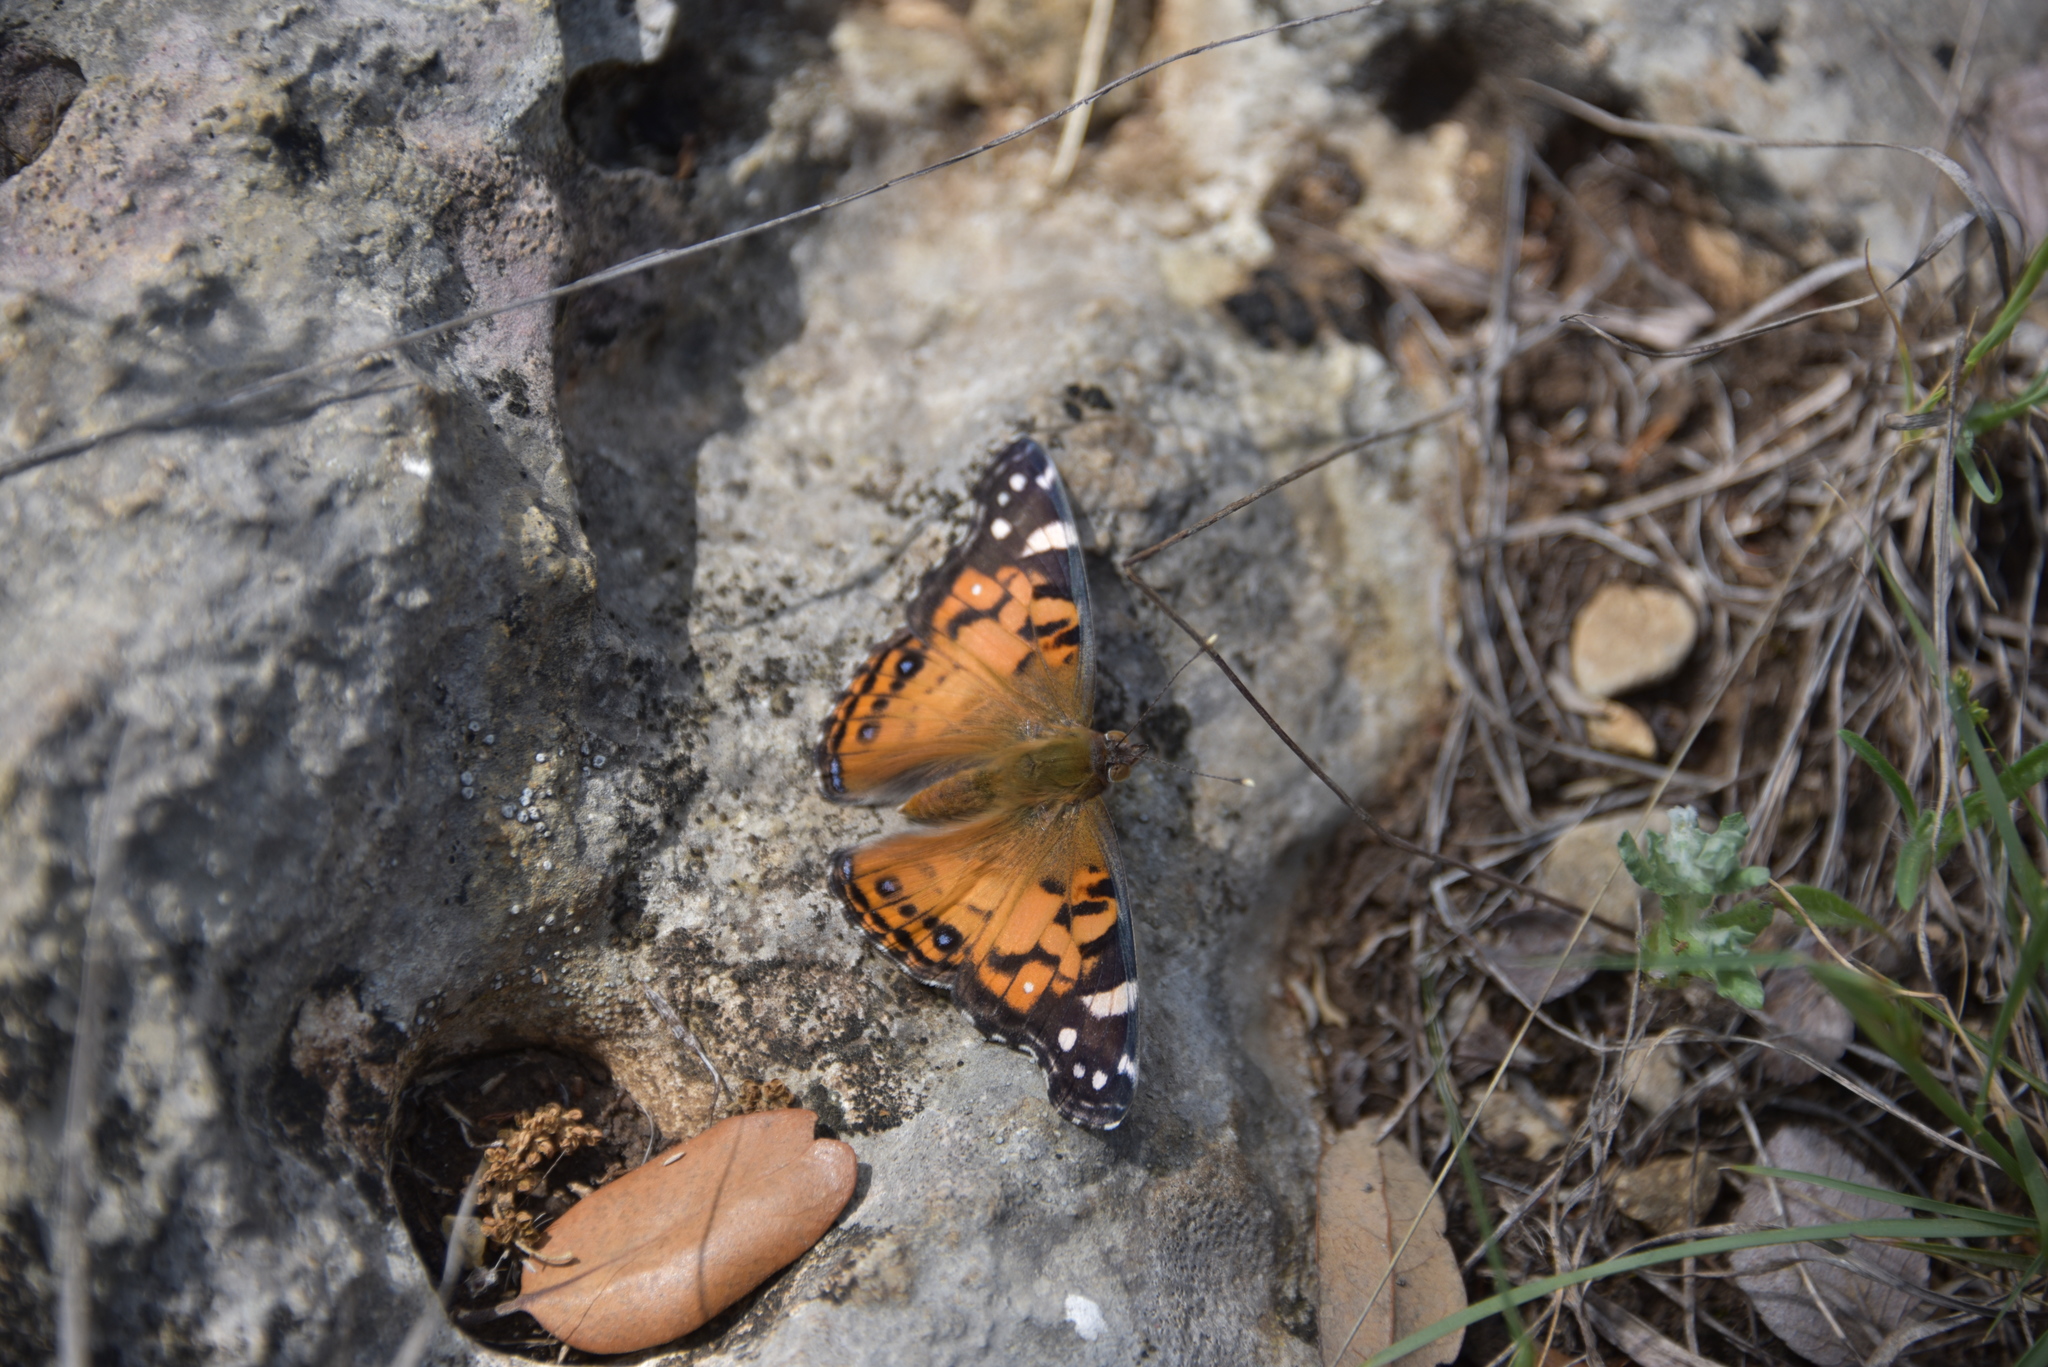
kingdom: Animalia
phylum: Arthropoda
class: Insecta
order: Lepidoptera
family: Nymphalidae
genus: Vanessa
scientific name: Vanessa virginiensis
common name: American lady
